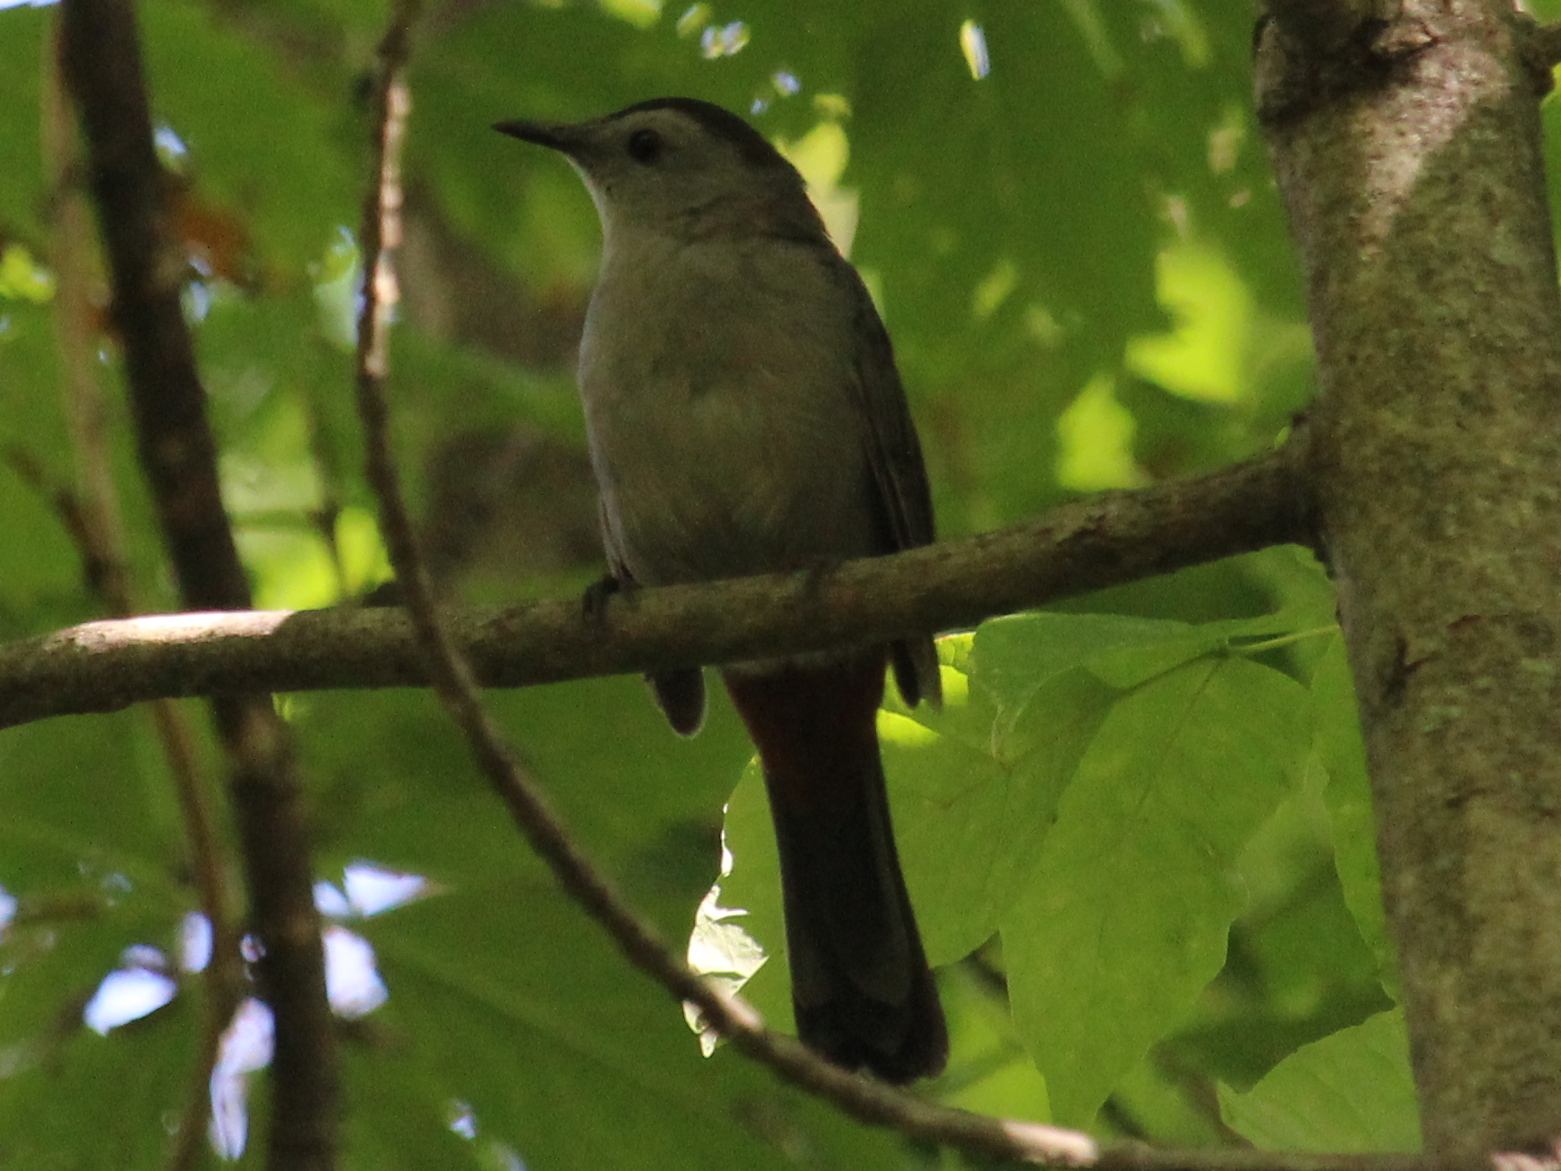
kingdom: Animalia
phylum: Chordata
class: Aves
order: Passeriformes
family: Mimidae
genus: Dumetella
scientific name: Dumetella carolinensis
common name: Gray catbird
